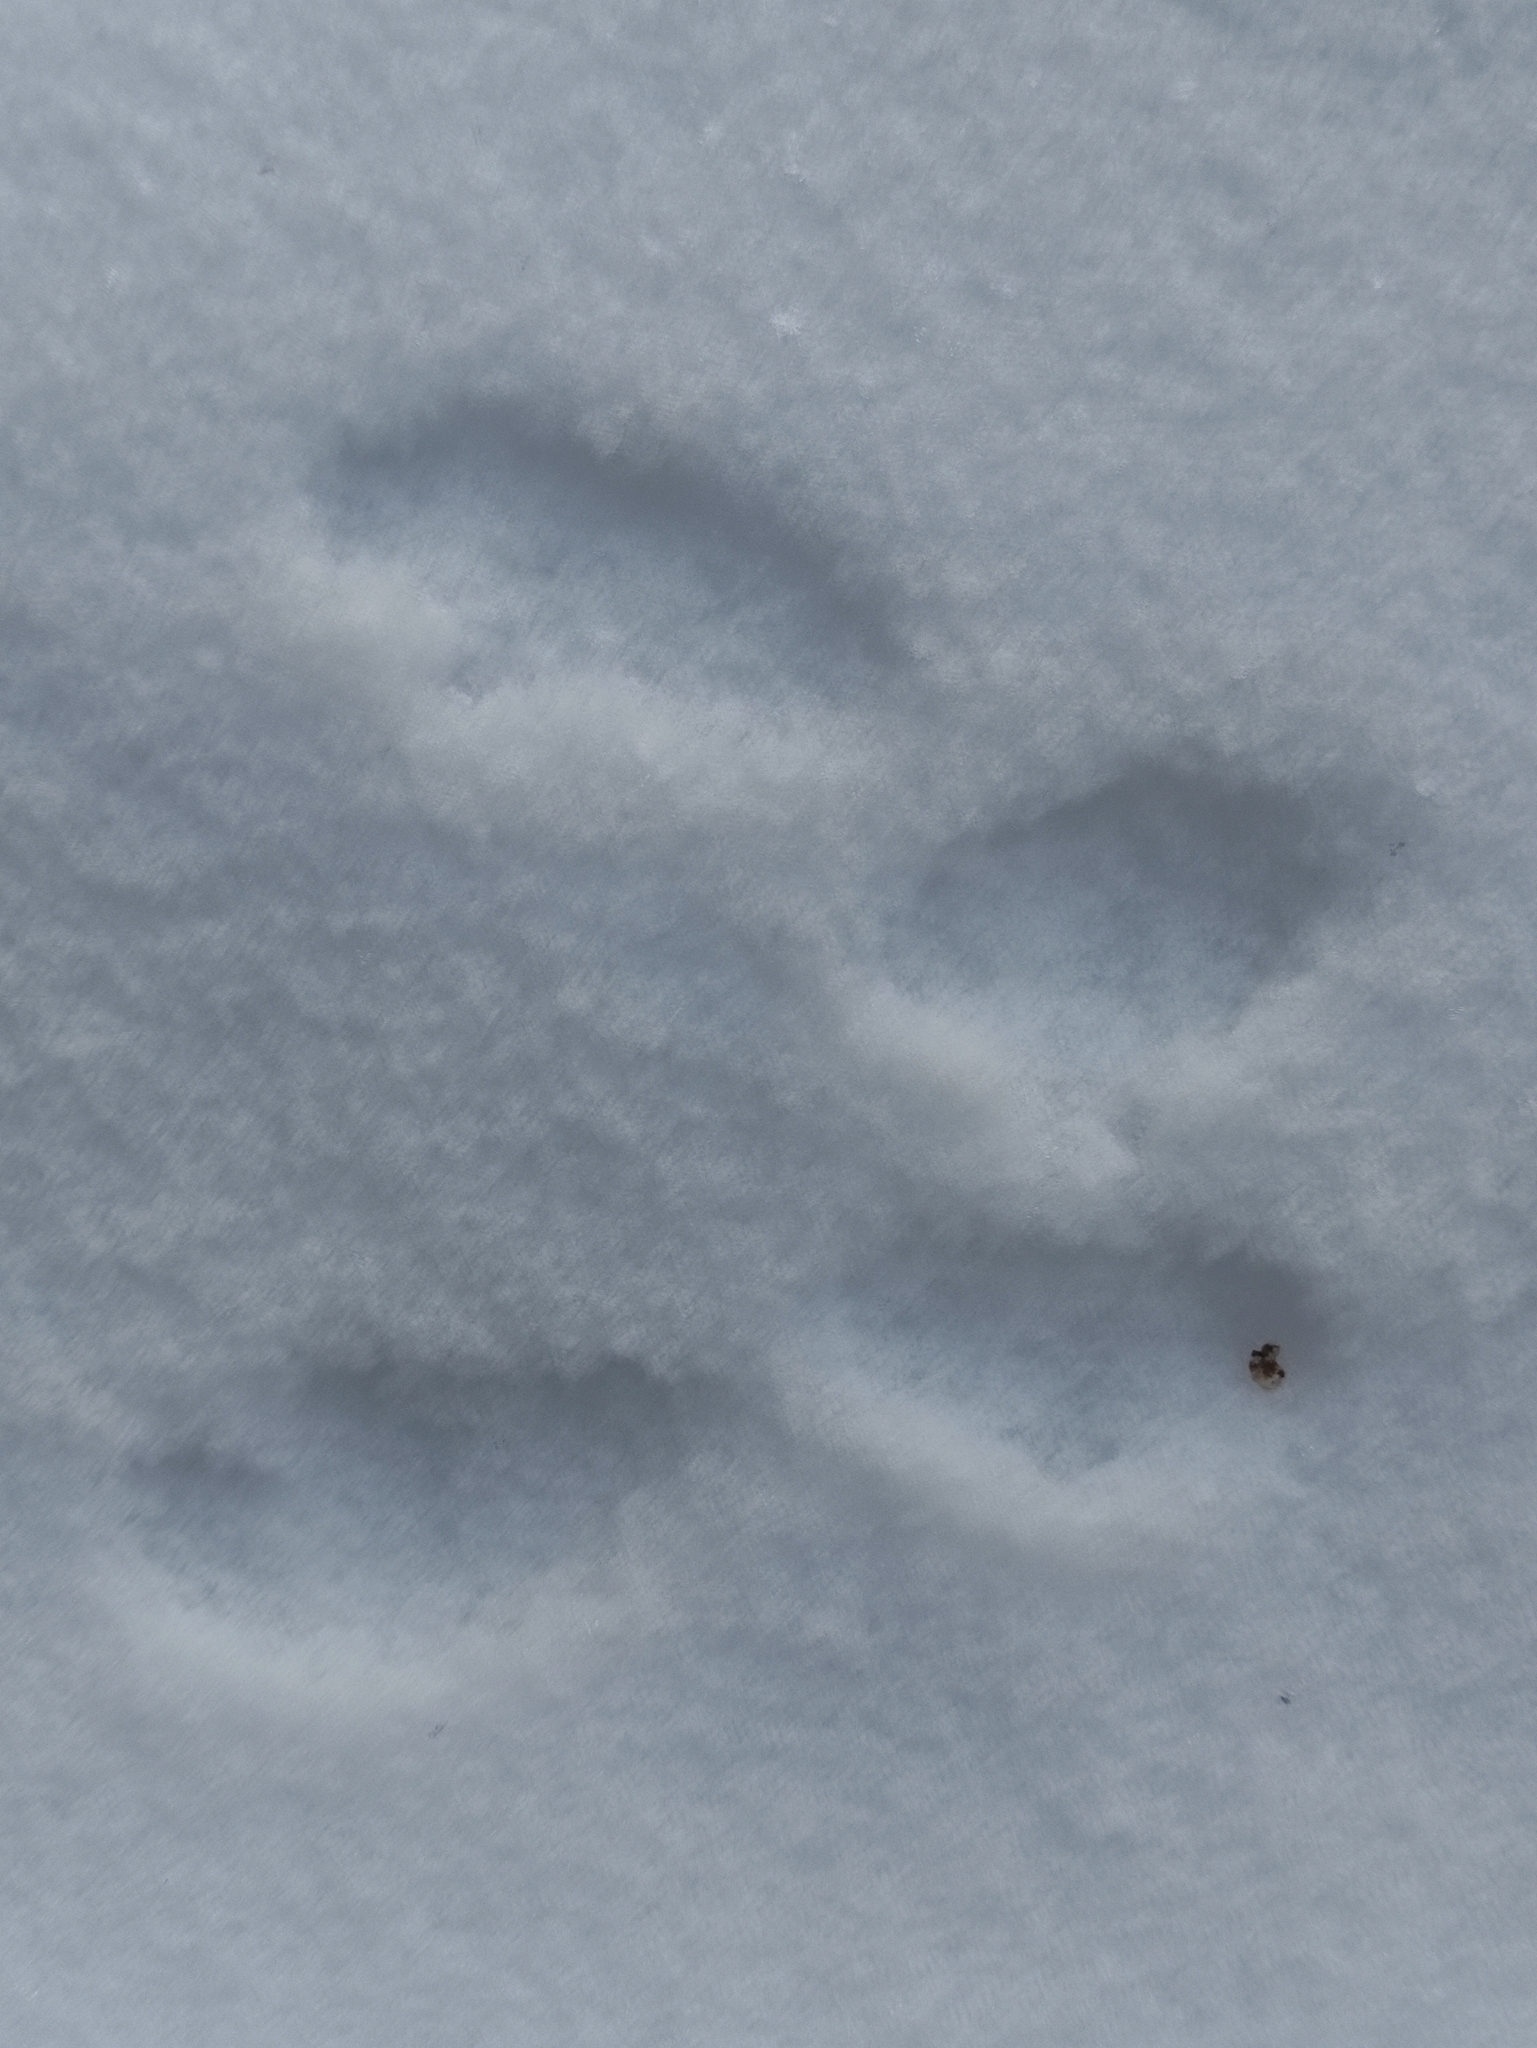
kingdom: Animalia
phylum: Chordata
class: Mammalia
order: Rodentia
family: Sciuridae
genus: Sciurus
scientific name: Sciurus vulgaris
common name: Eurasian red squirrel
